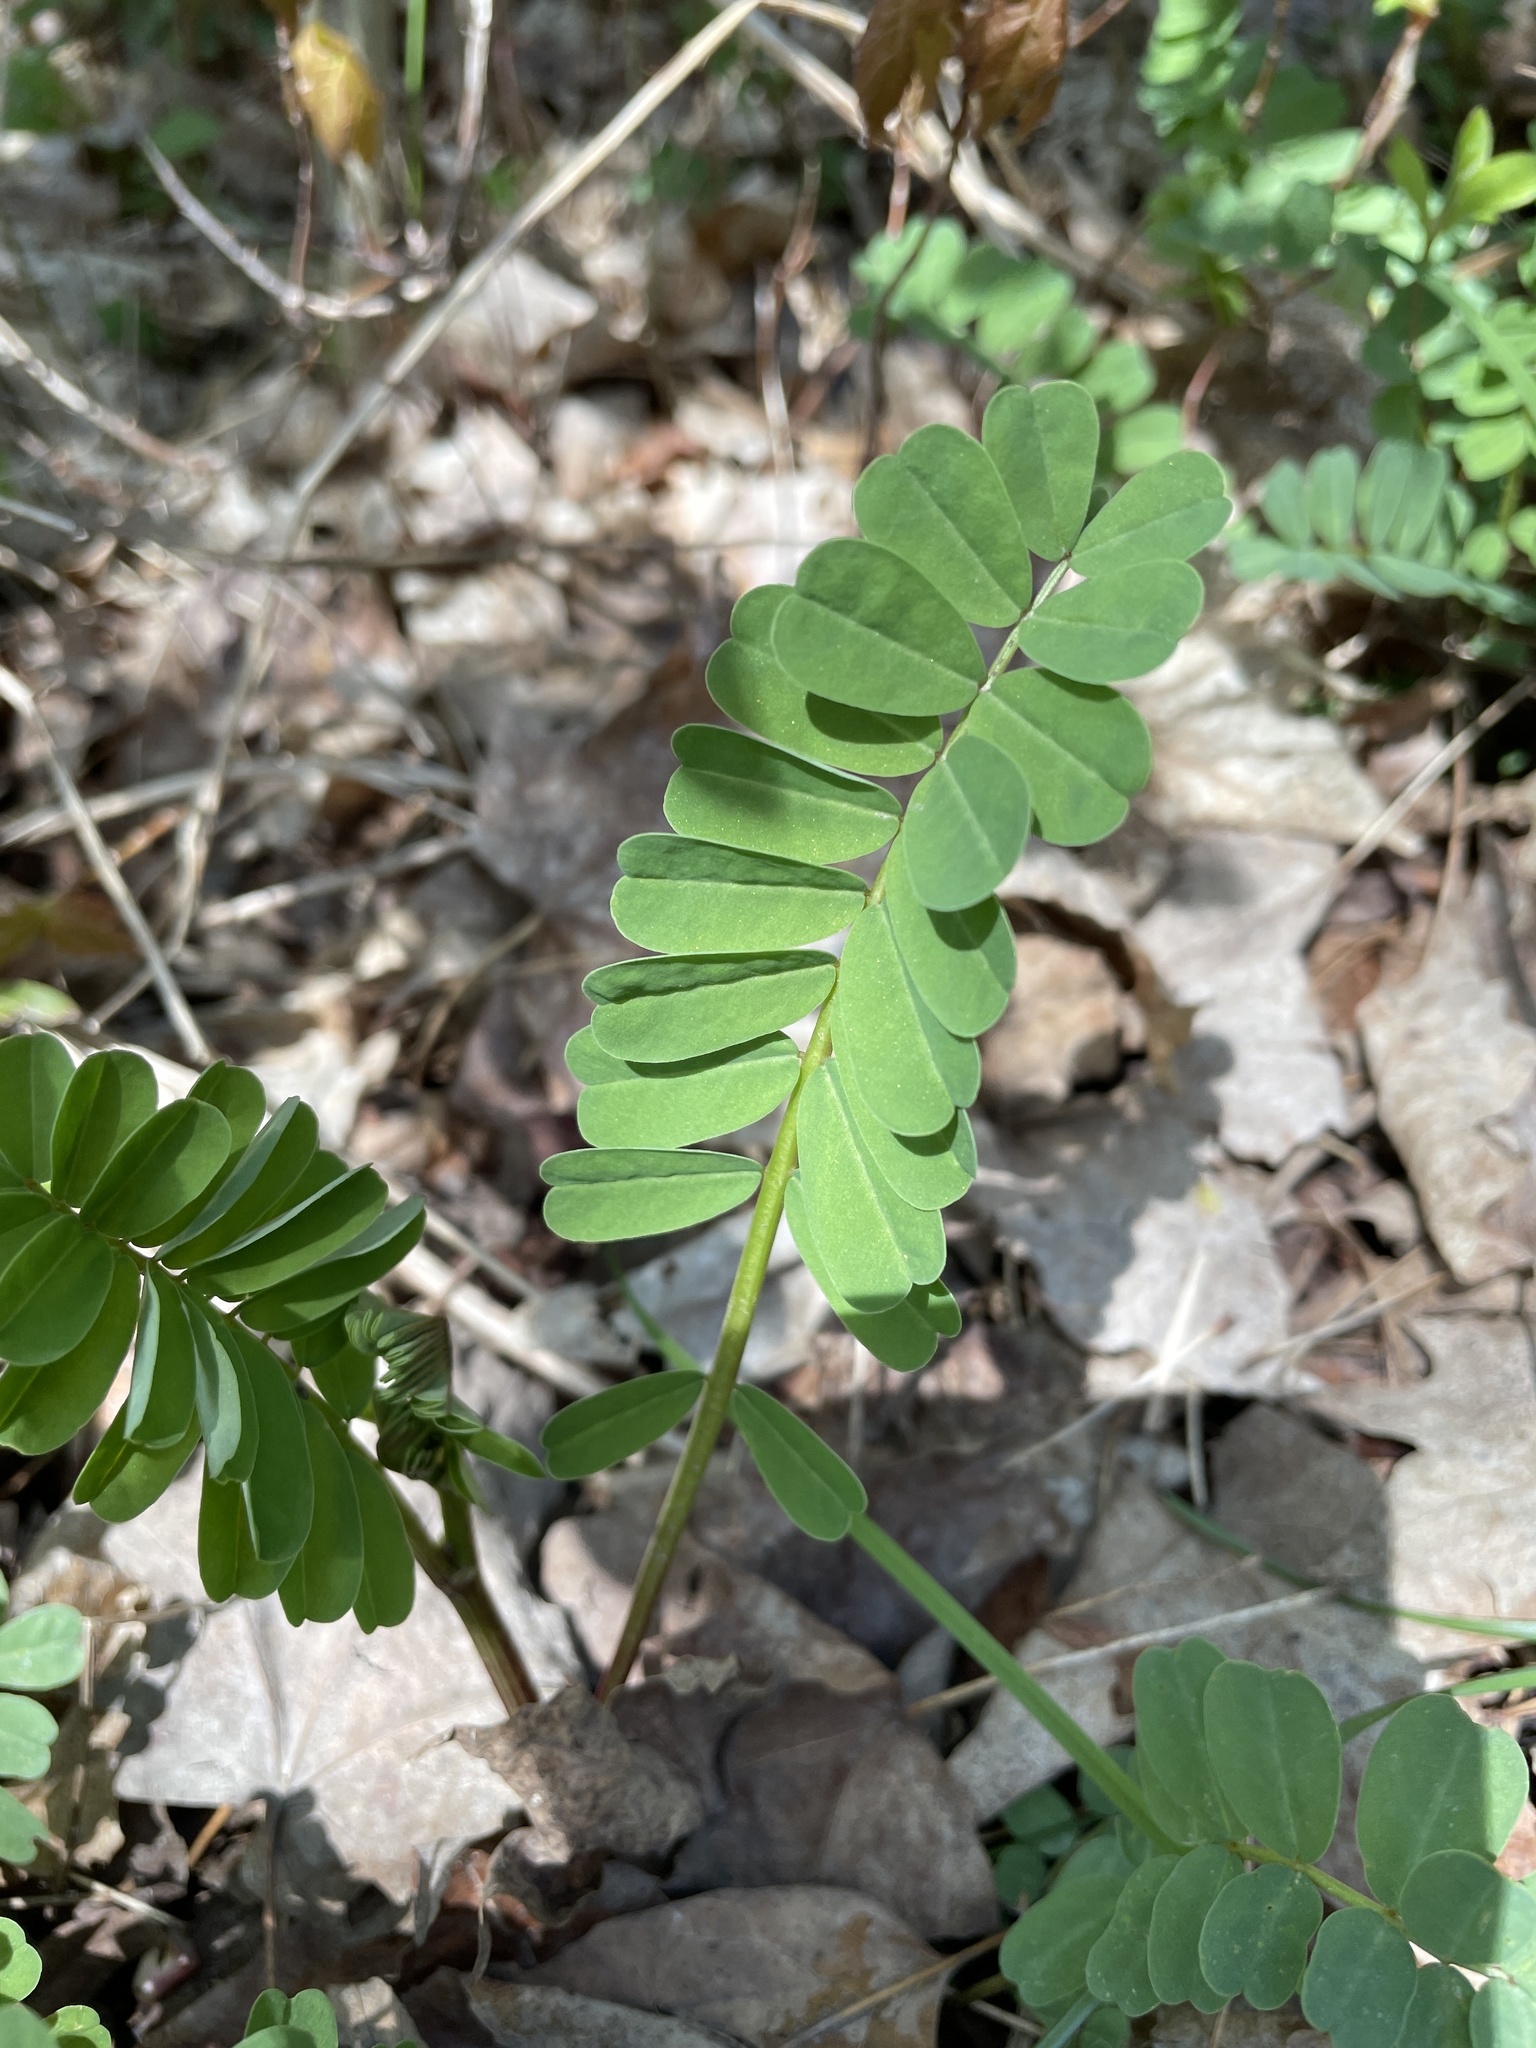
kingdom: Plantae
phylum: Tracheophyta
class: Magnoliopsida
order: Fabales
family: Fabaceae
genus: Coronilla
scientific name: Coronilla varia
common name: Crownvetch
